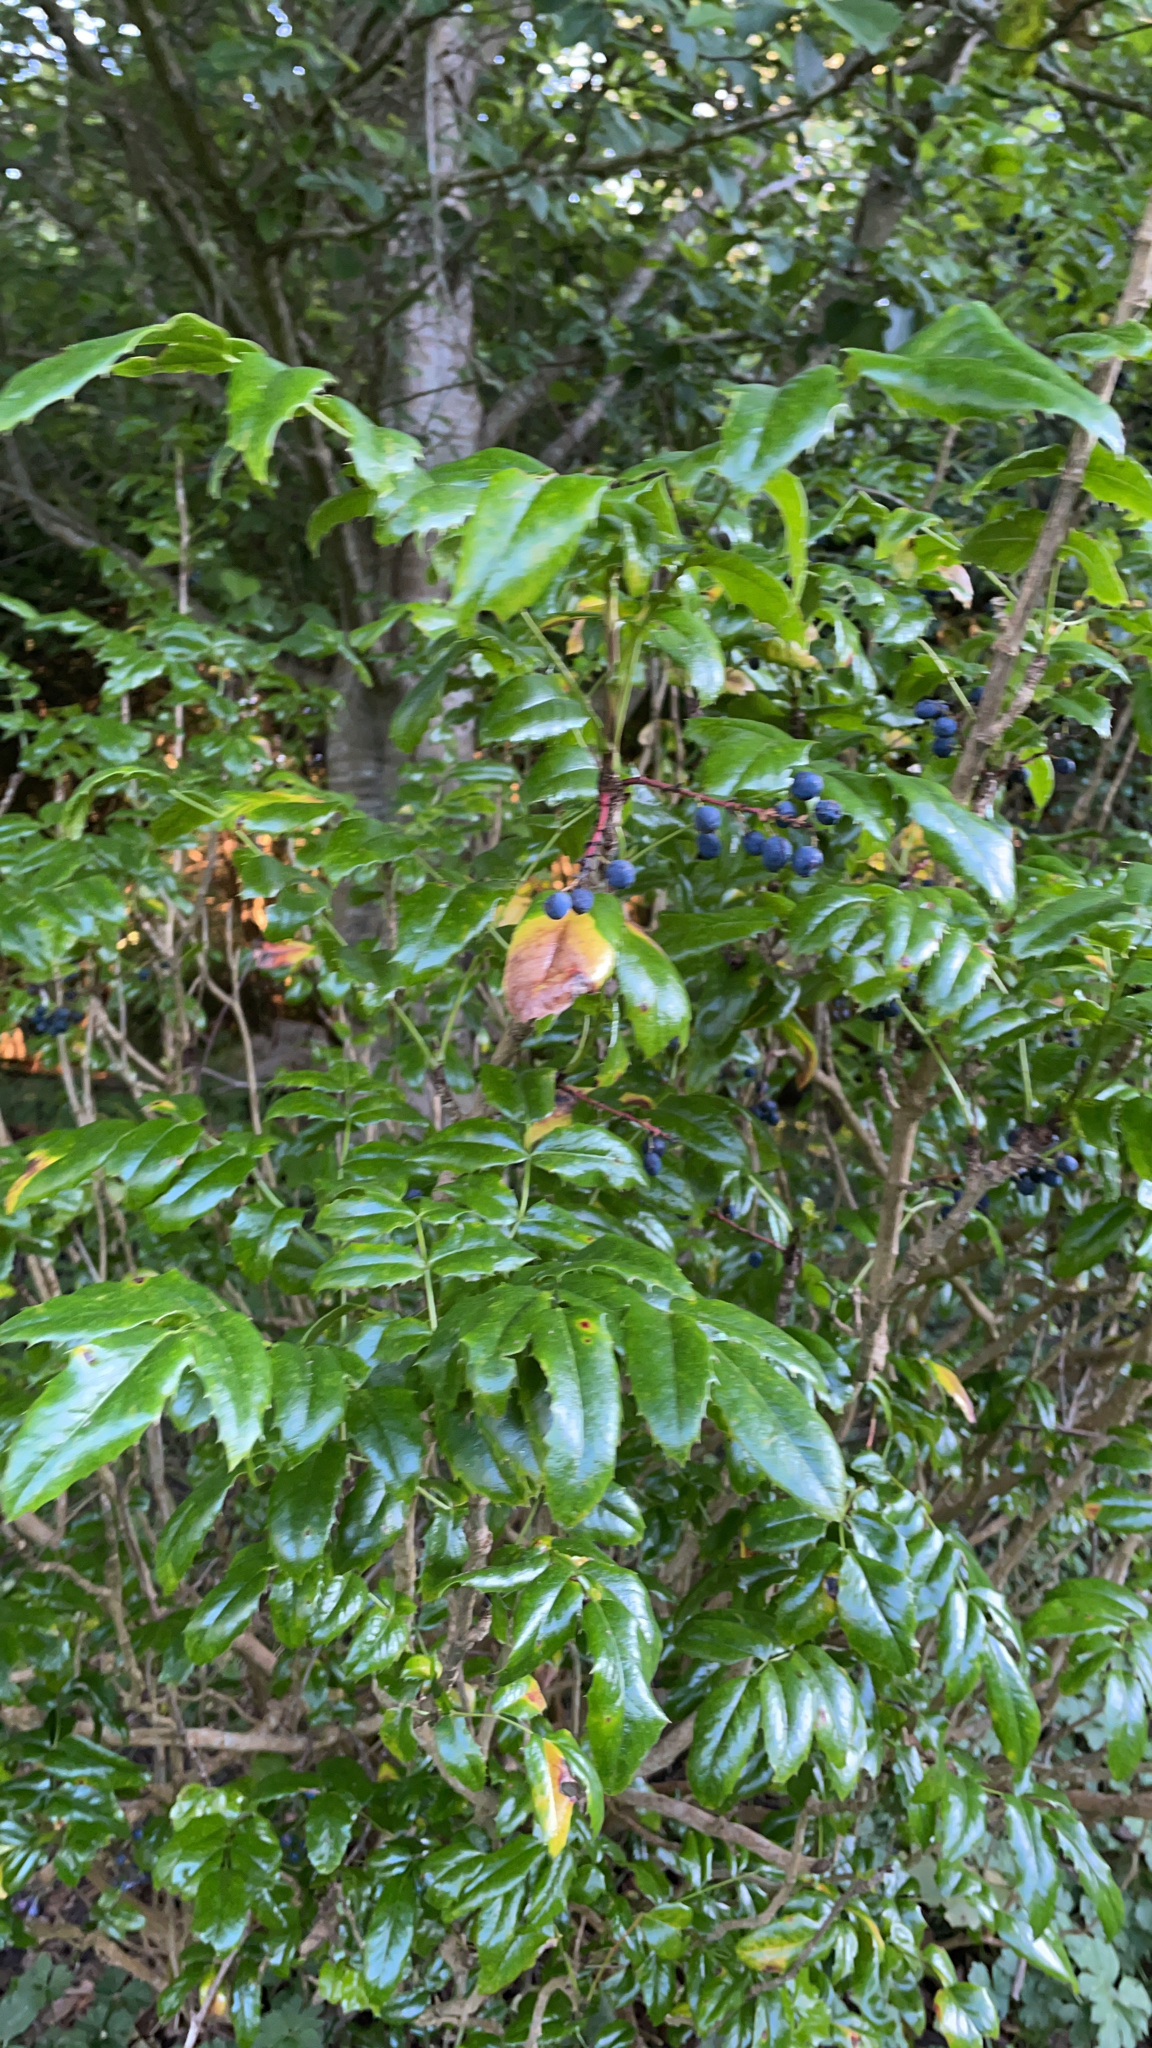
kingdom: Plantae
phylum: Tracheophyta
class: Magnoliopsida
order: Ranunculales
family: Berberidaceae
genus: Mahonia
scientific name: Mahonia aquifolium
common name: Oregon-grape
